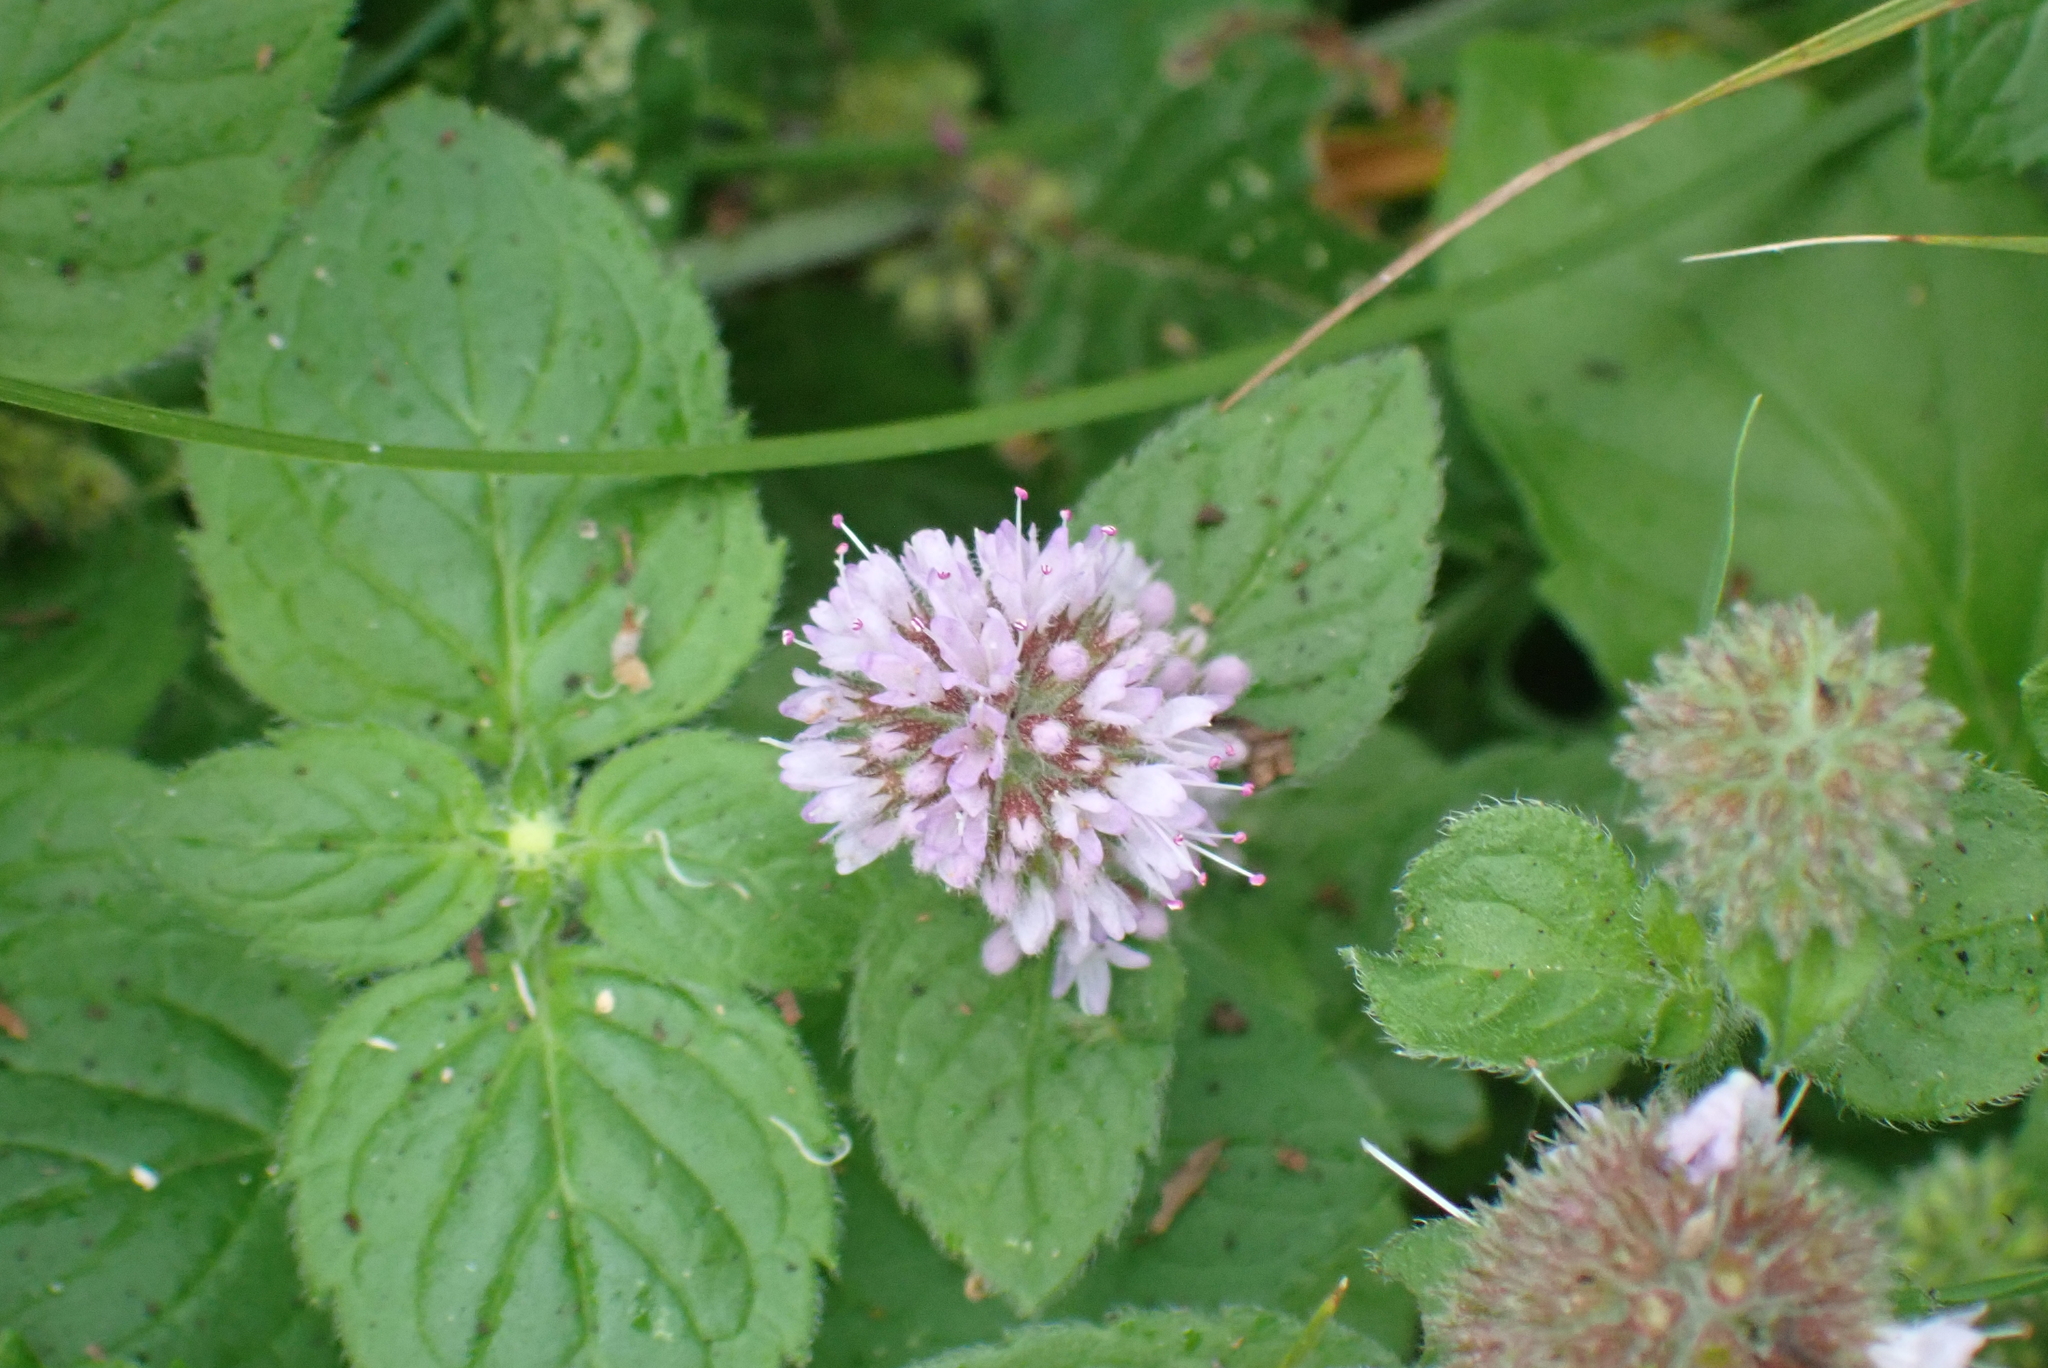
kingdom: Plantae
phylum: Tracheophyta
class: Magnoliopsida
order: Lamiales
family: Lamiaceae
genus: Mentha
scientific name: Mentha aquatica
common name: Water mint
